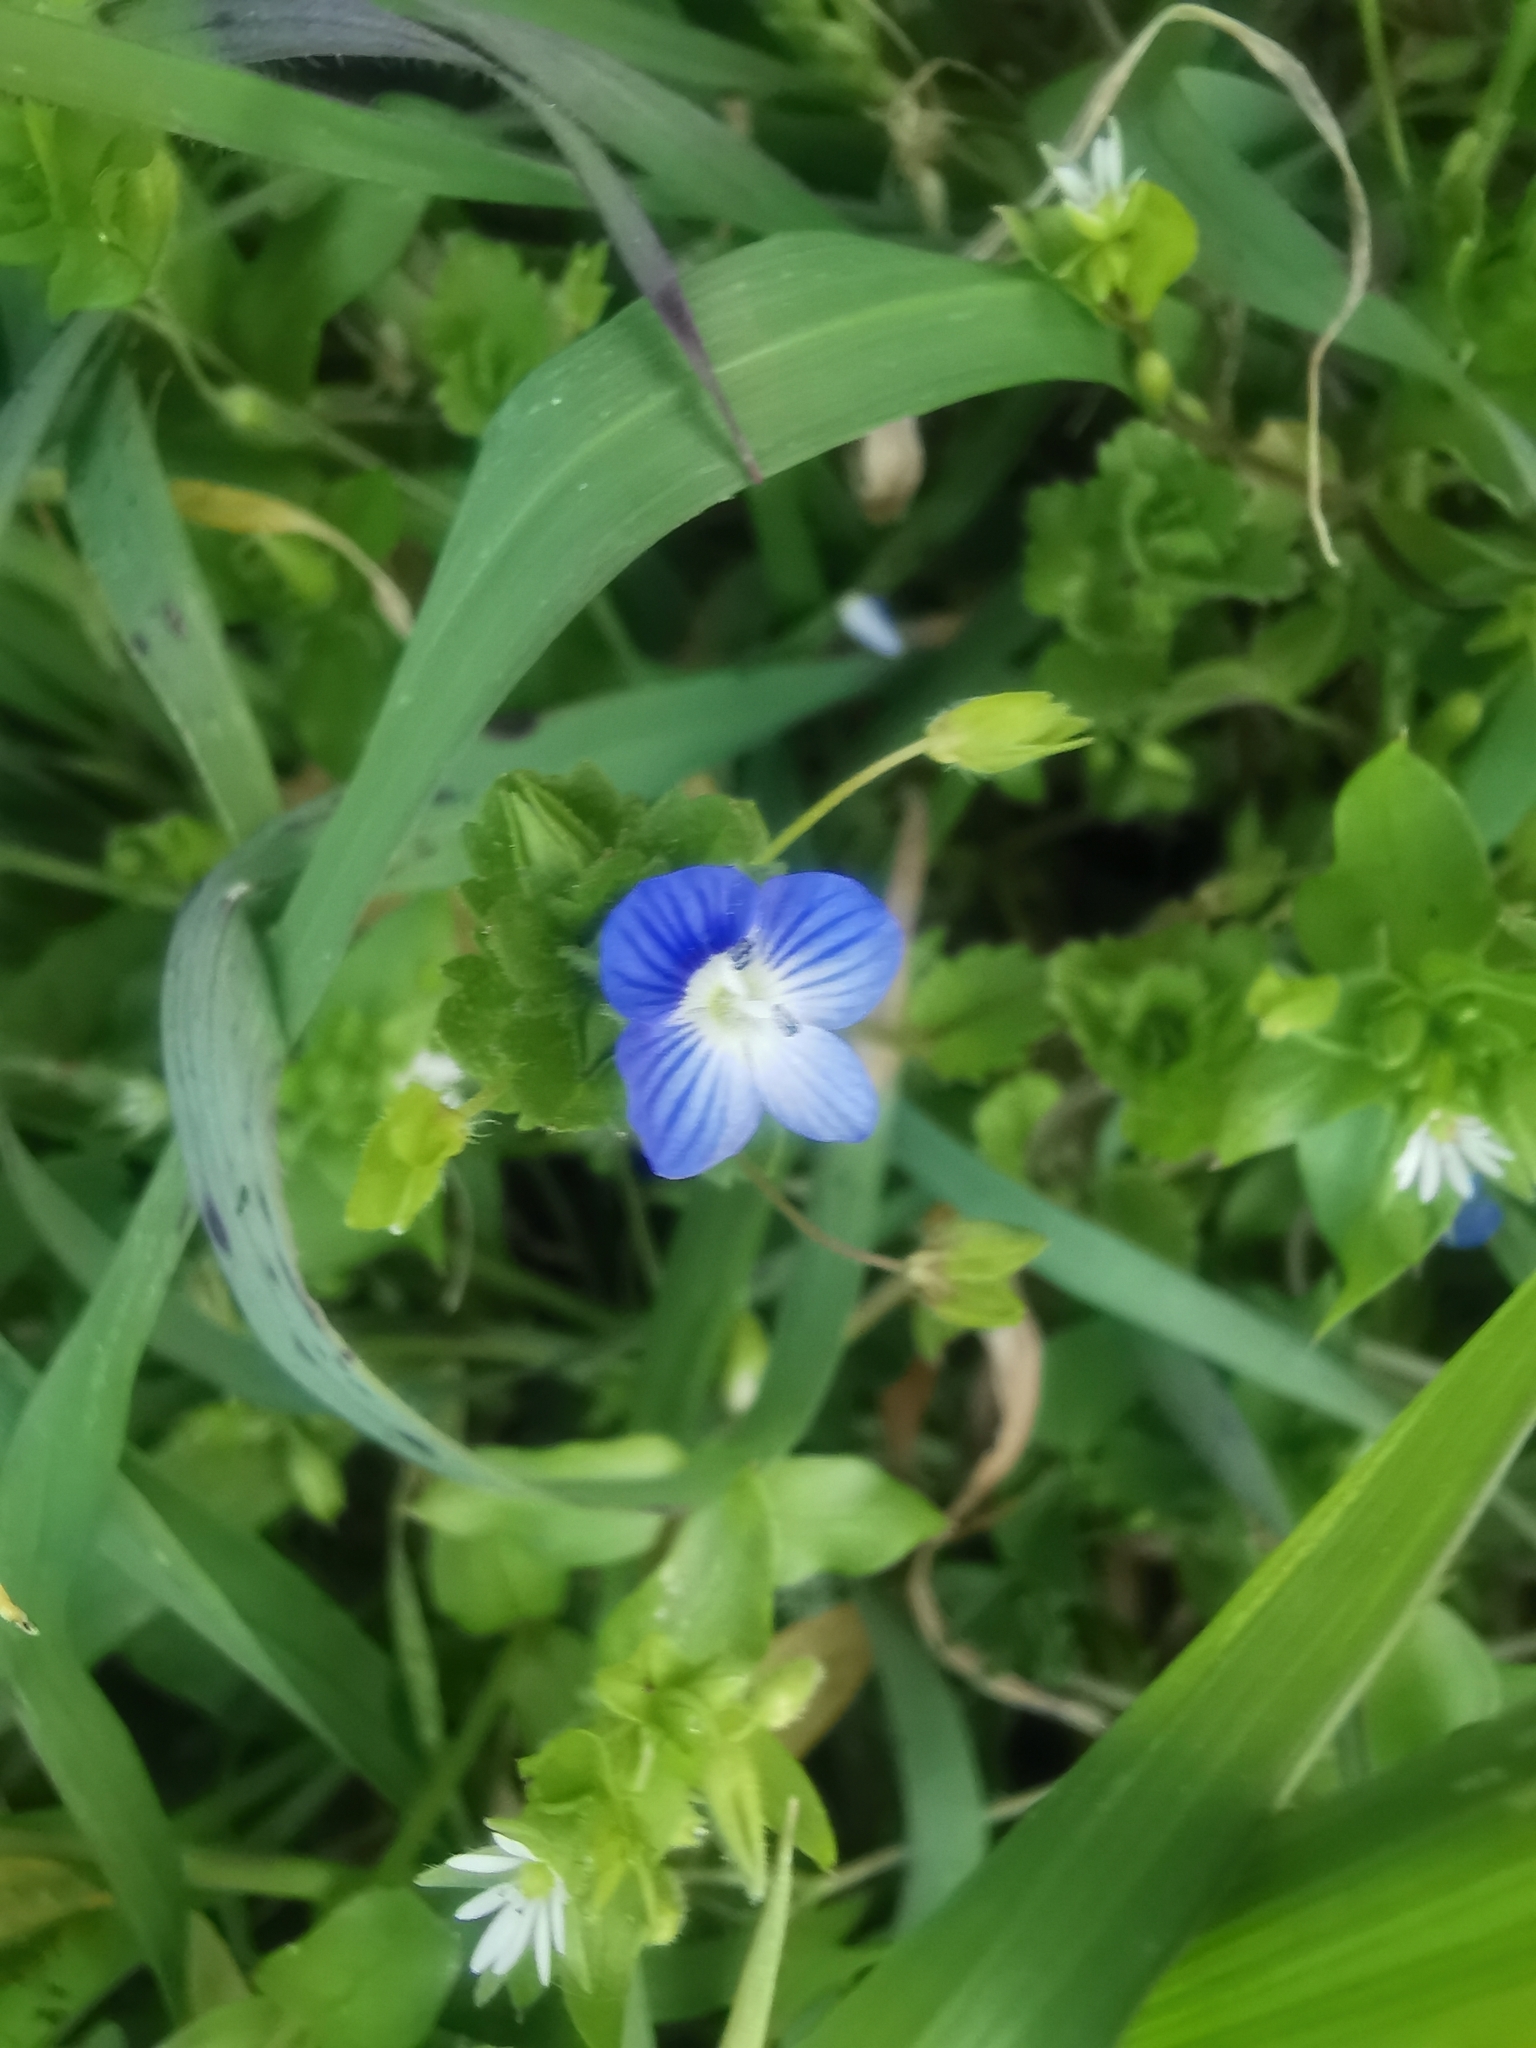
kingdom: Plantae
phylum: Tracheophyta
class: Magnoliopsida
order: Lamiales
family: Plantaginaceae
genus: Veronica
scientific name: Veronica persica
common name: Common field-speedwell
